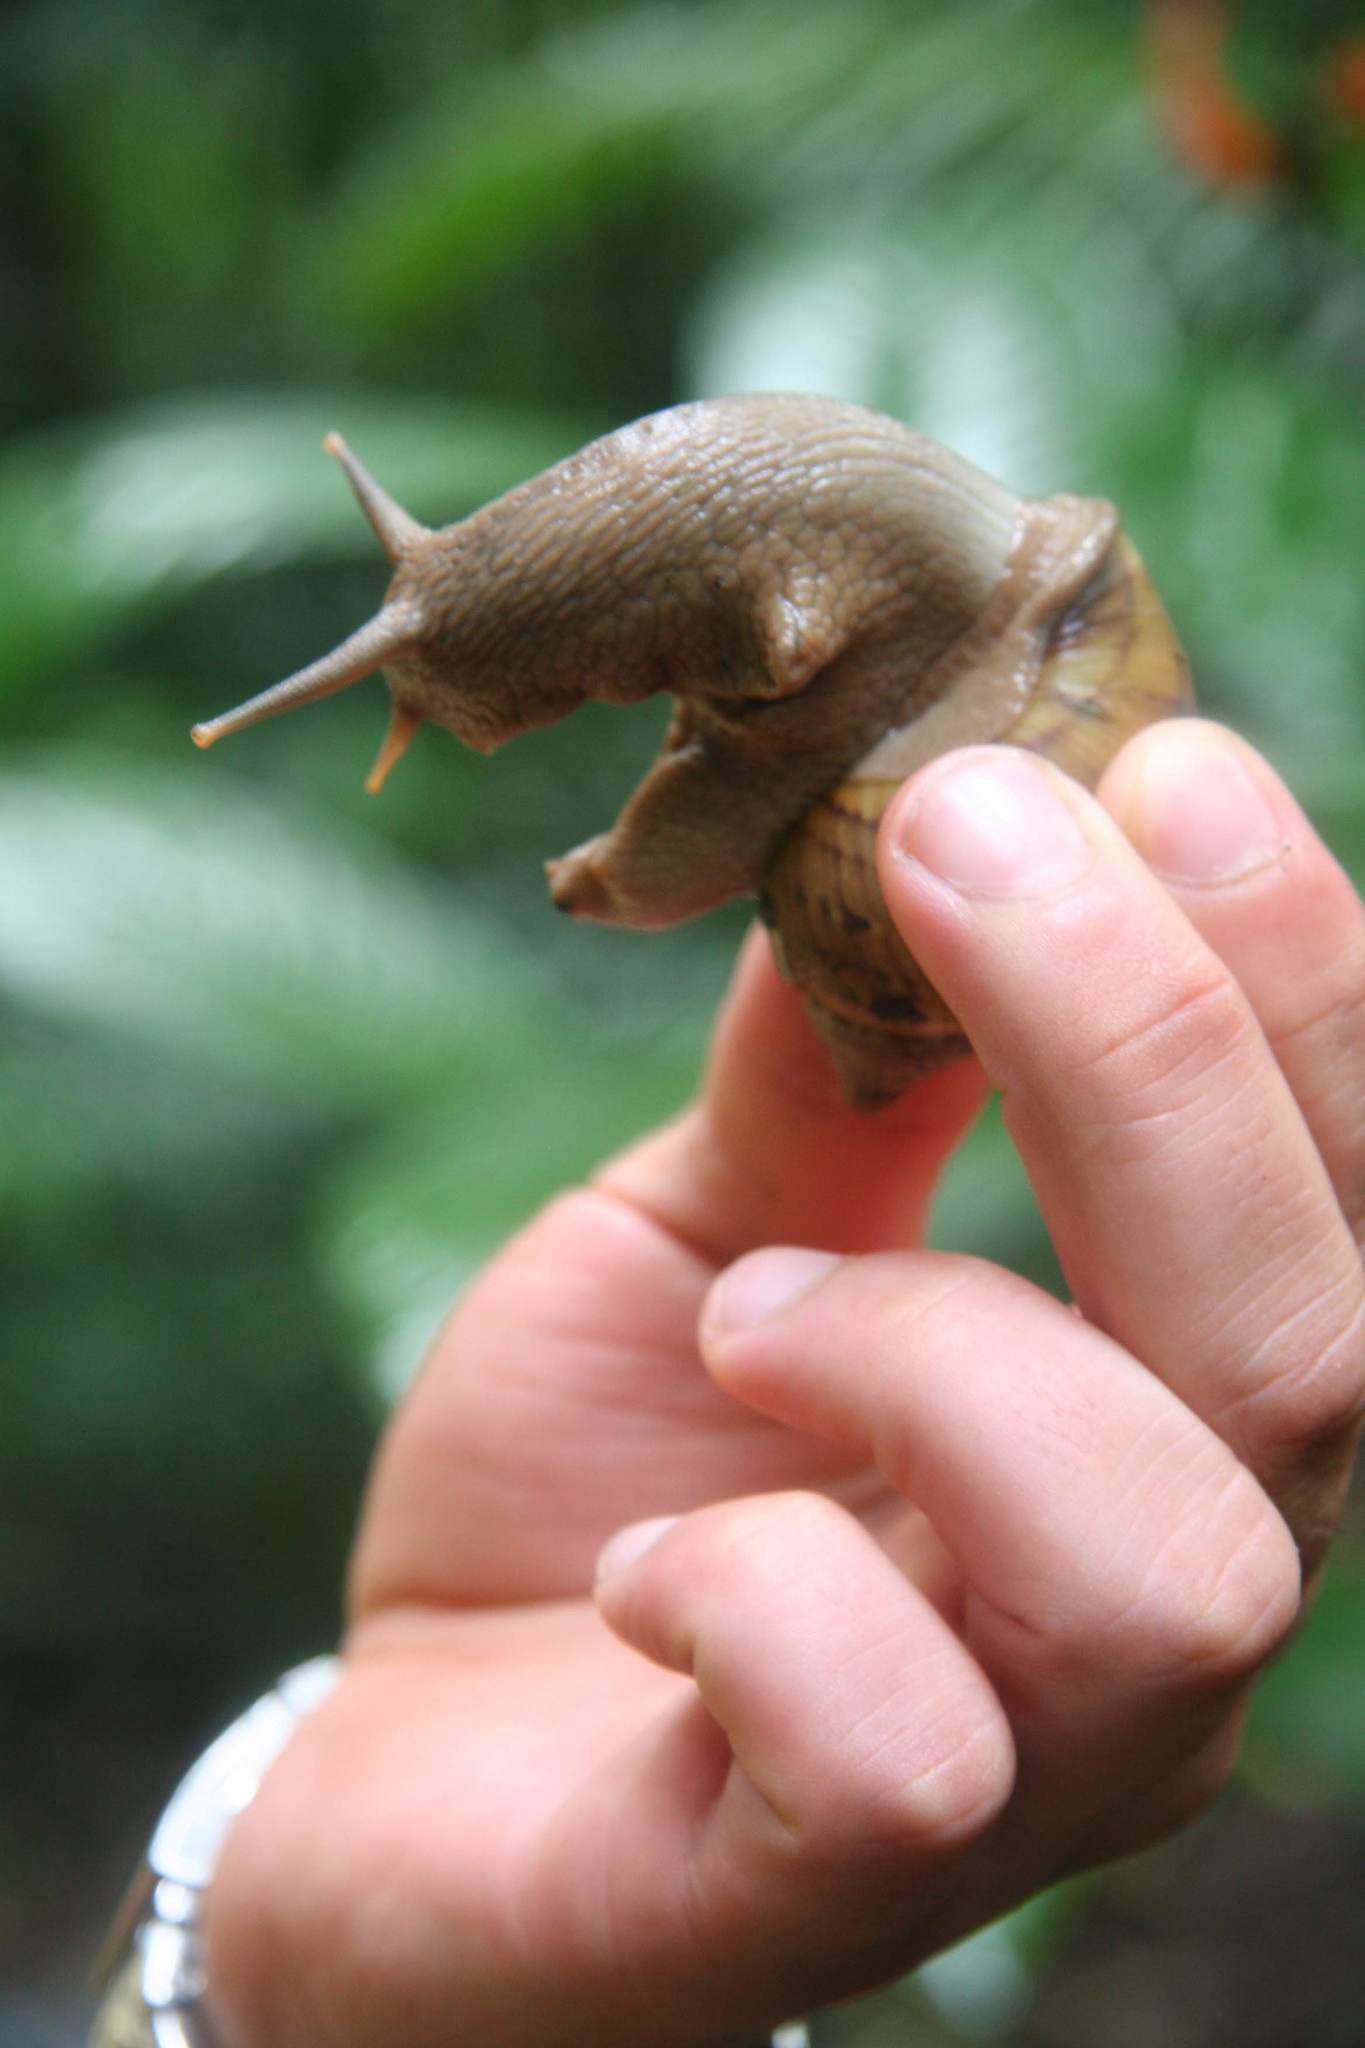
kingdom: Animalia
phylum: Mollusca
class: Gastropoda
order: Stylommatophora
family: Orthalicidae
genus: Sultana
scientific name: Sultana sultana
